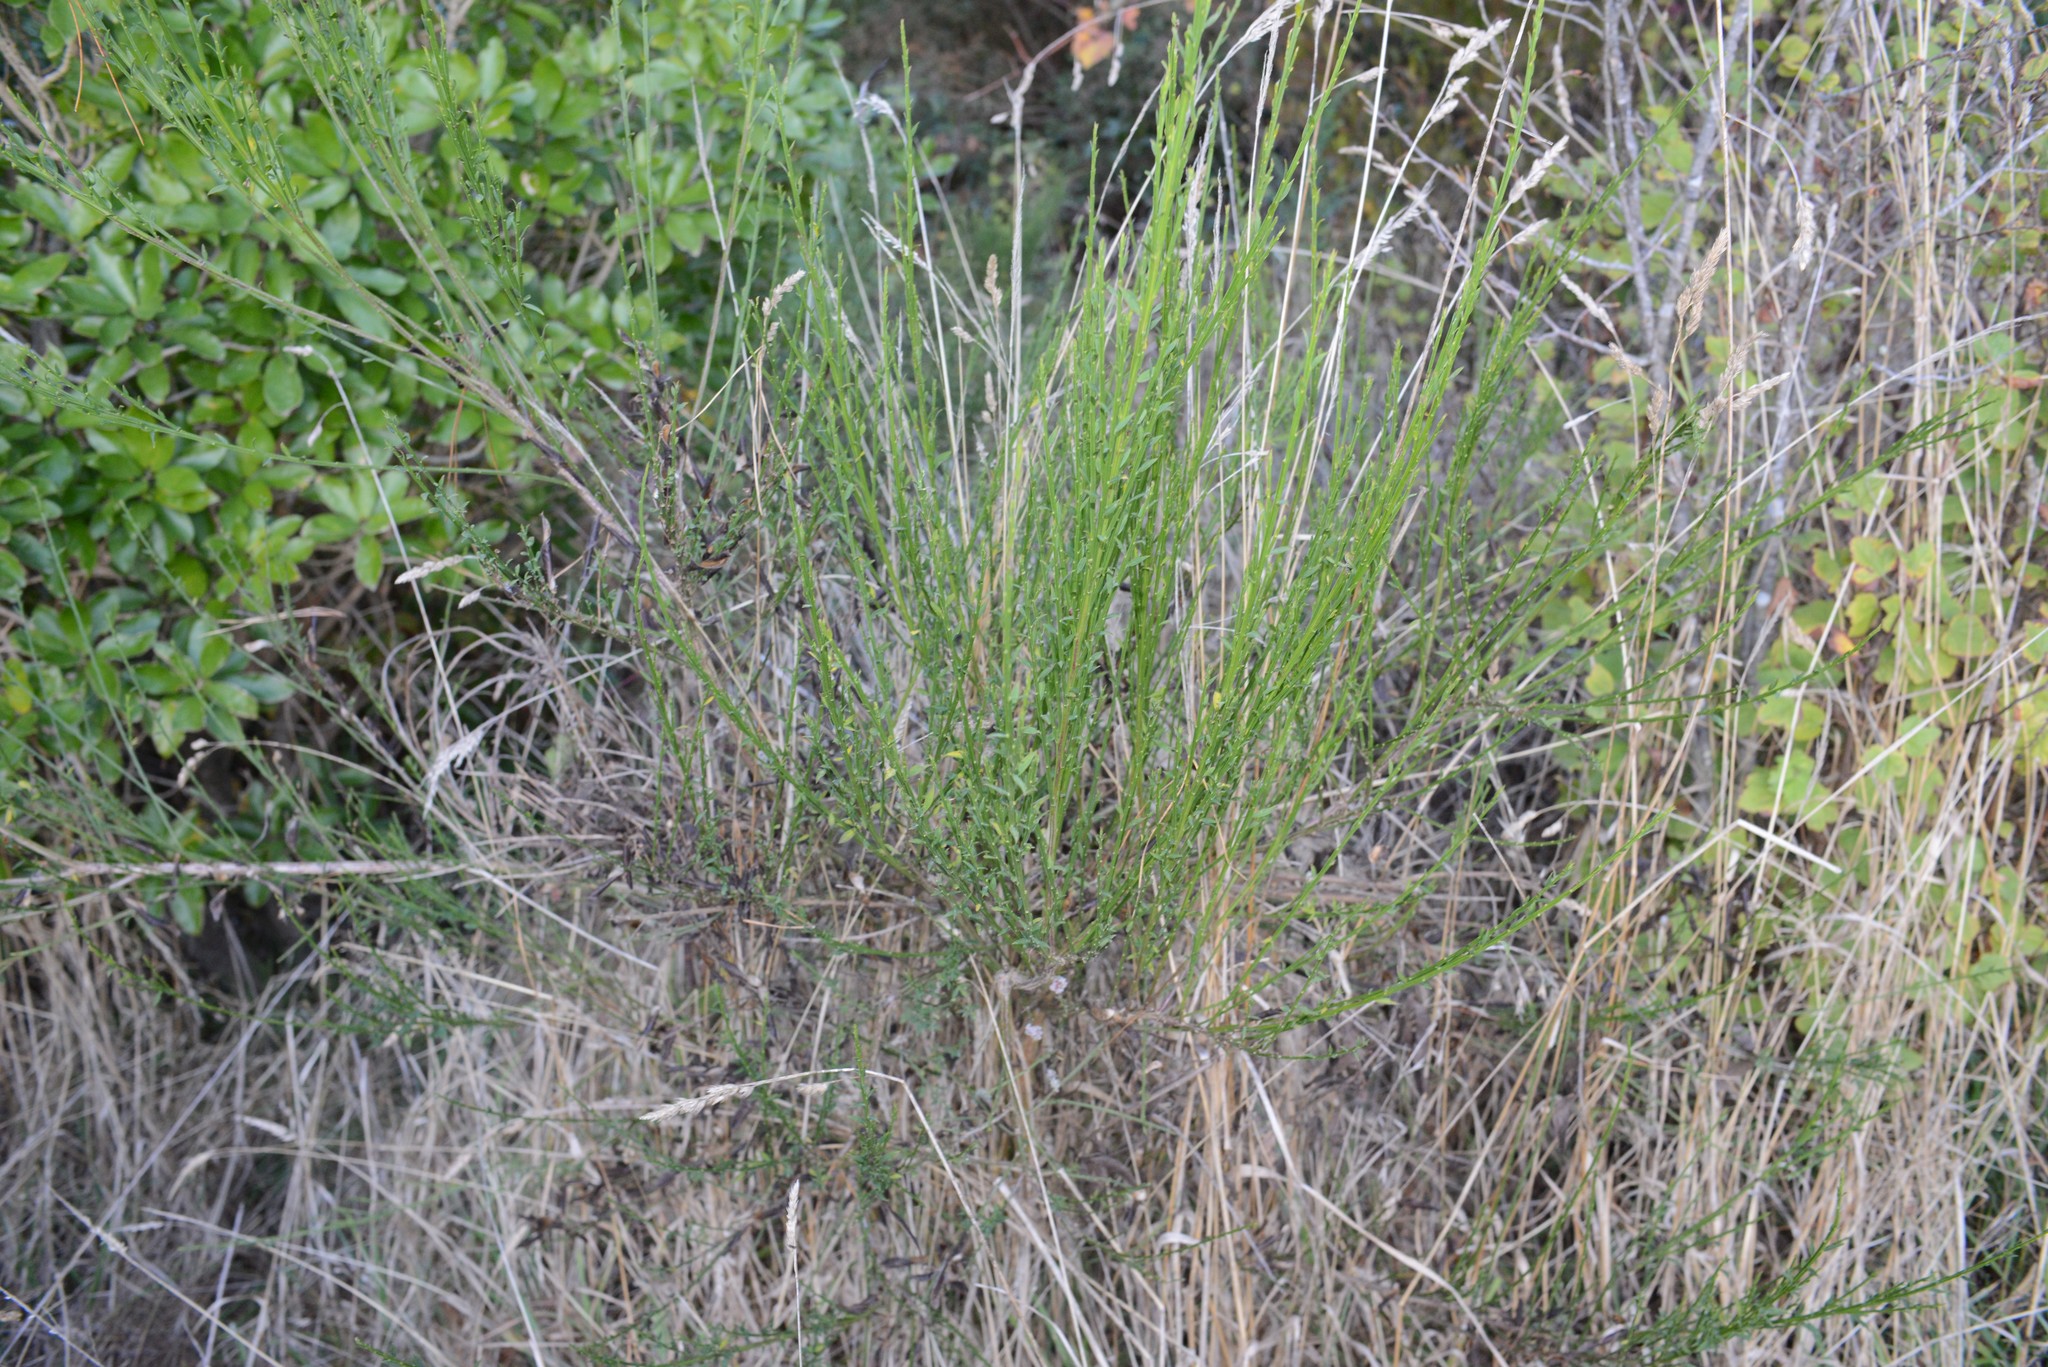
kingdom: Plantae
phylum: Tracheophyta
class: Magnoliopsida
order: Fabales
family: Fabaceae
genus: Cytisus
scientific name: Cytisus scoparius
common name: Scotch broom
